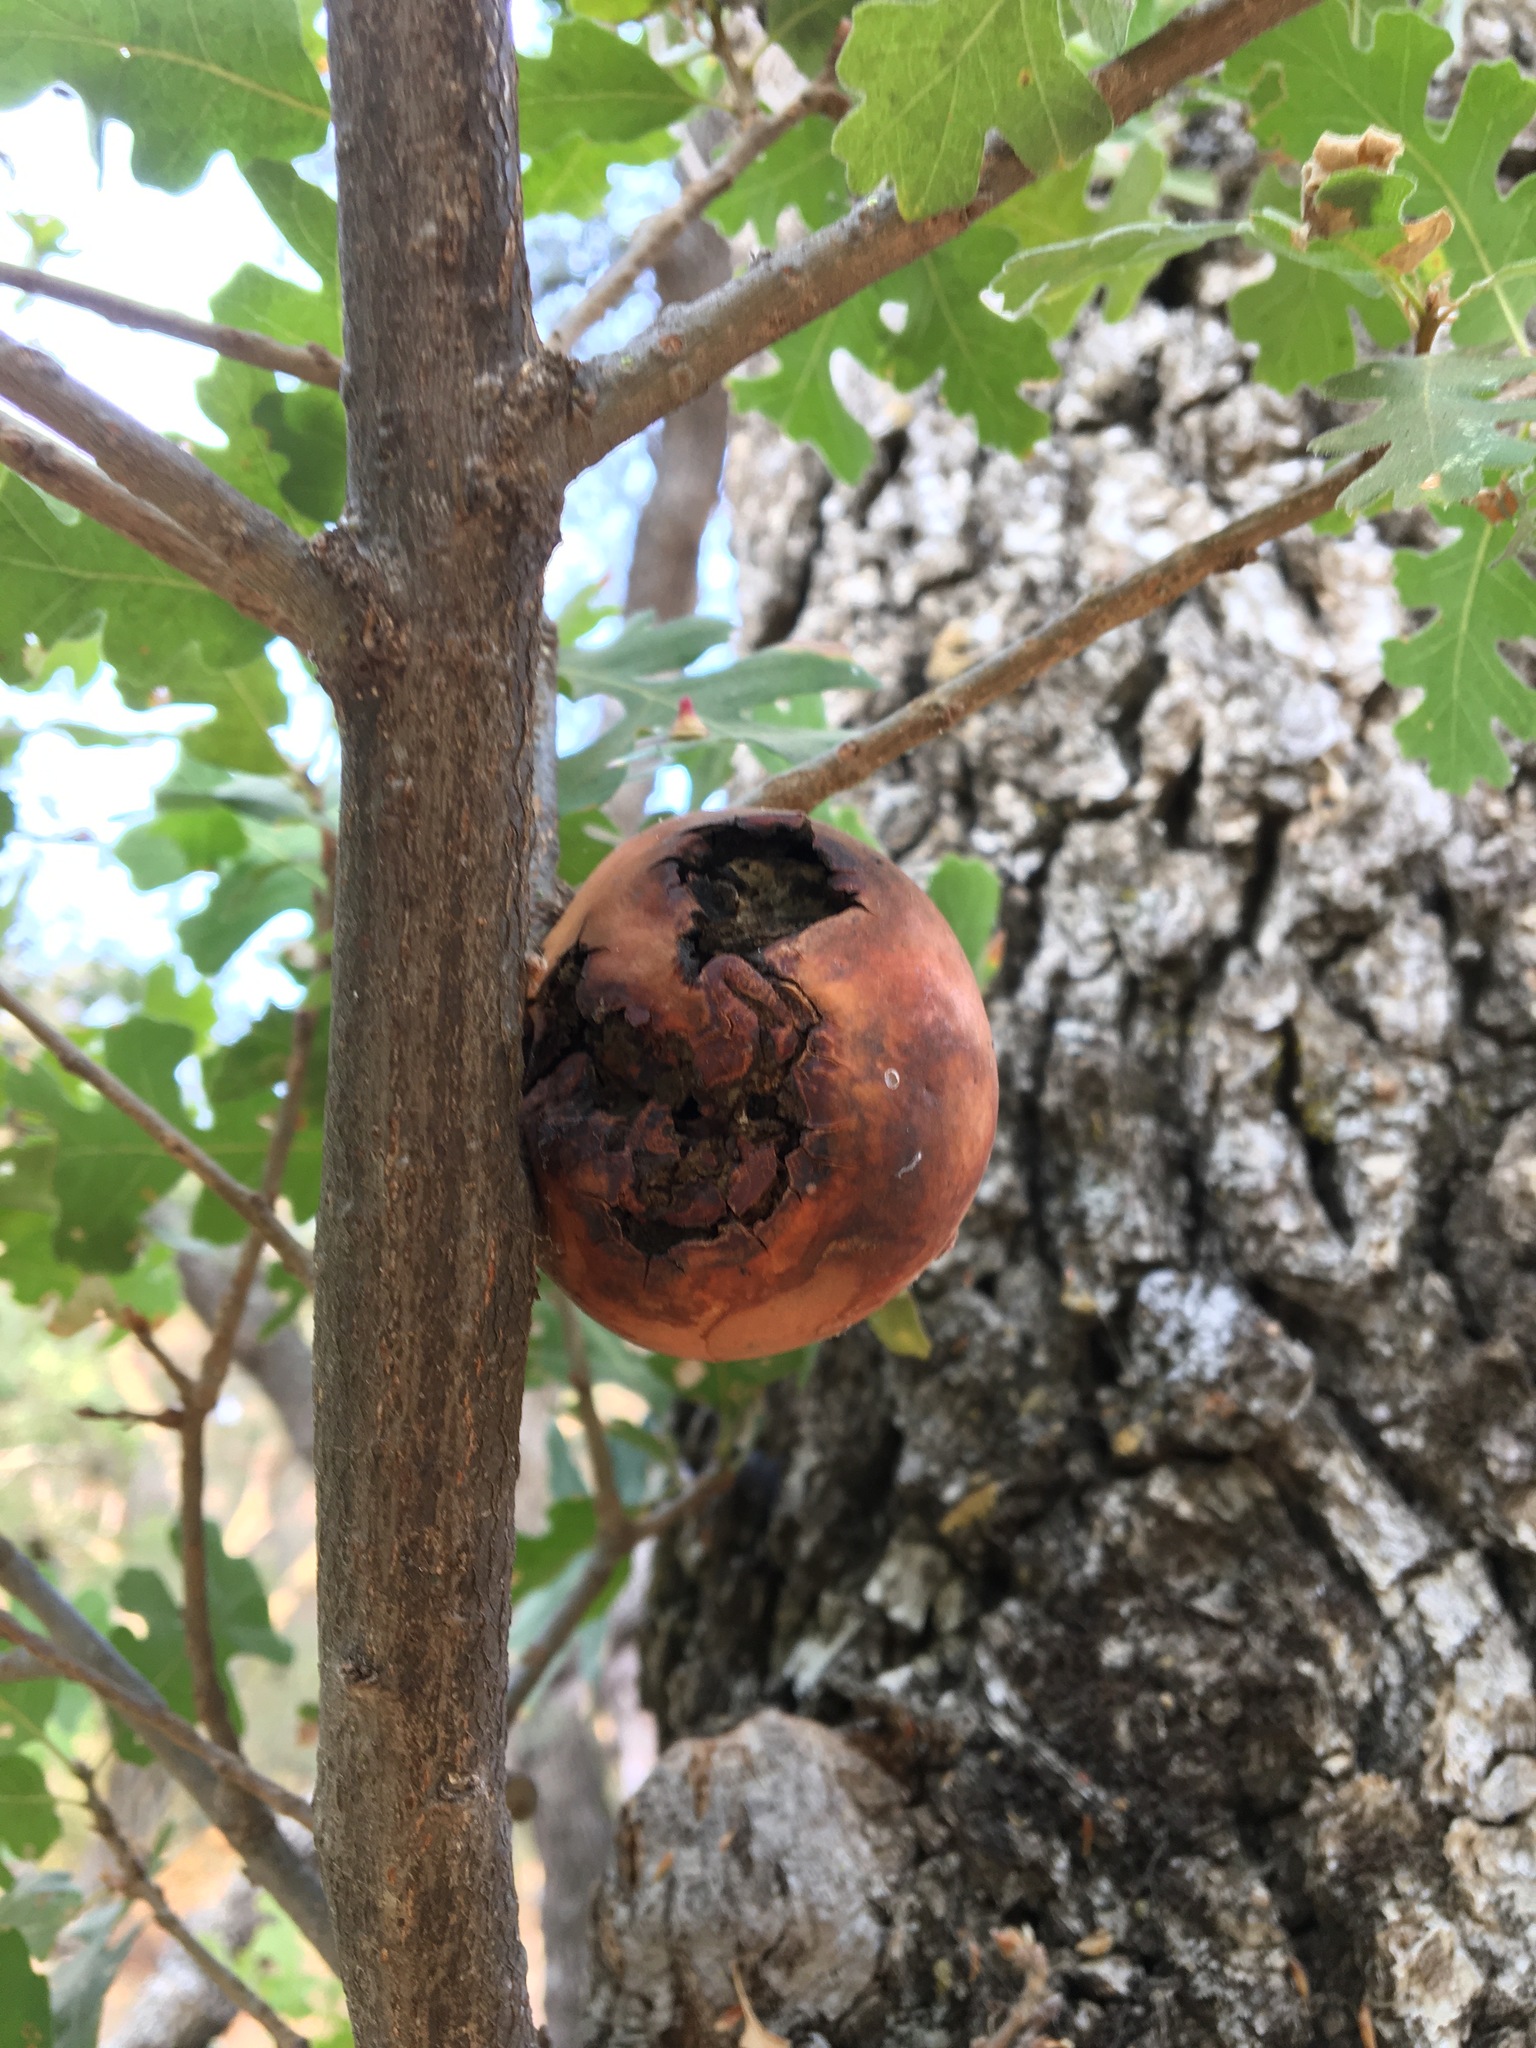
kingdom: Animalia
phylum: Arthropoda
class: Insecta
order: Hymenoptera
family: Cynipidae
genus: Andricus
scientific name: Andricus quercuscalifornicus
